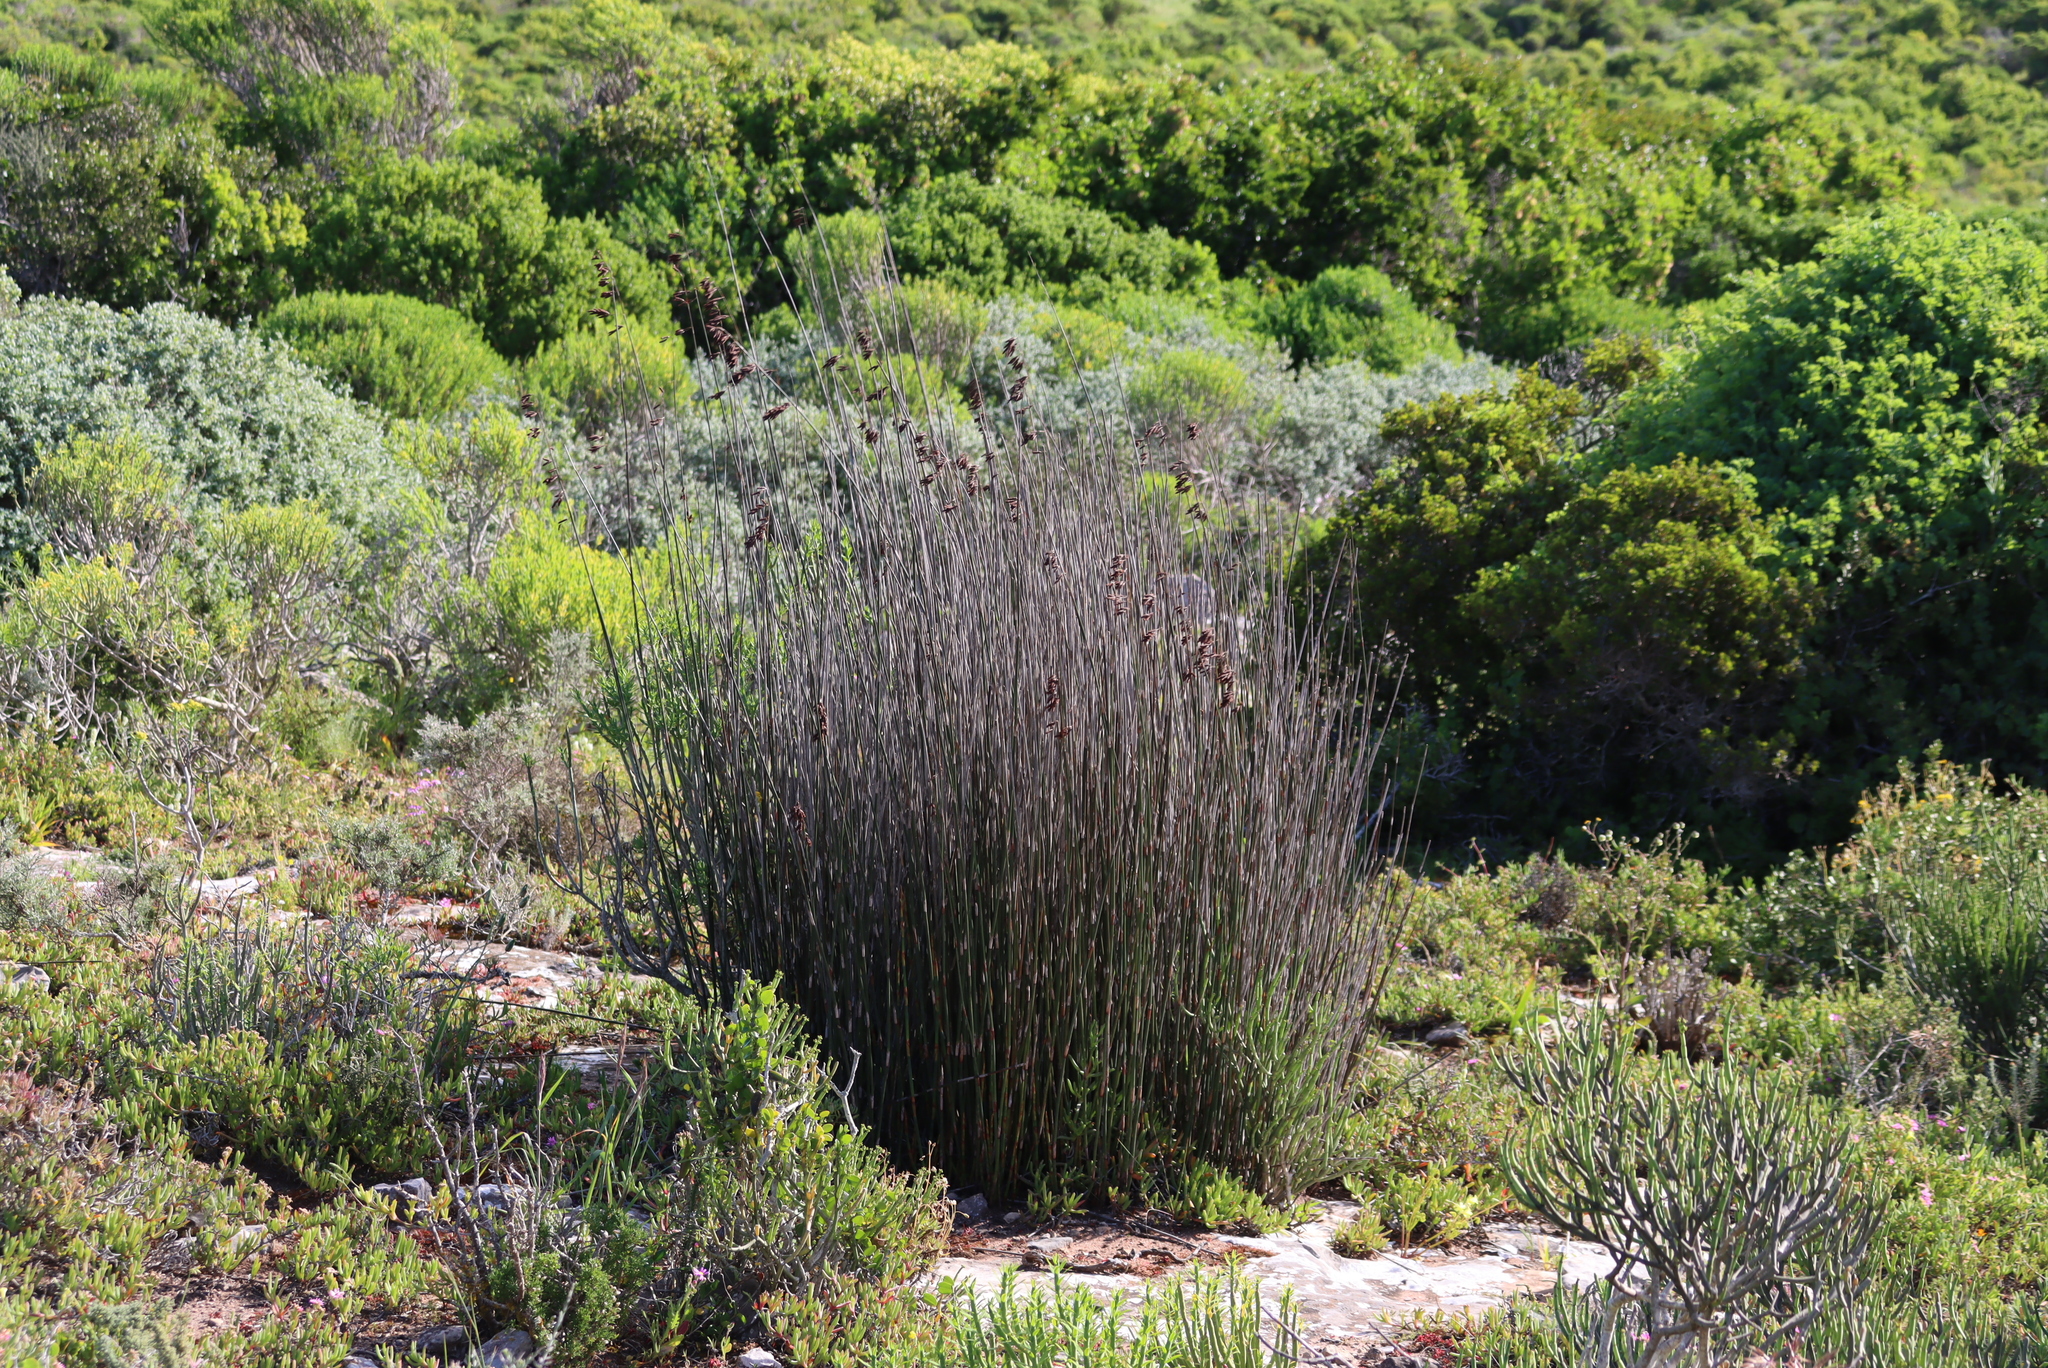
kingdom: Plantae
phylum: Tracheophyta
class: Liliopsida
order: Poales
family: Restionaceae
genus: Thamnochortus
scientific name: Thamnochortus spicigerus
